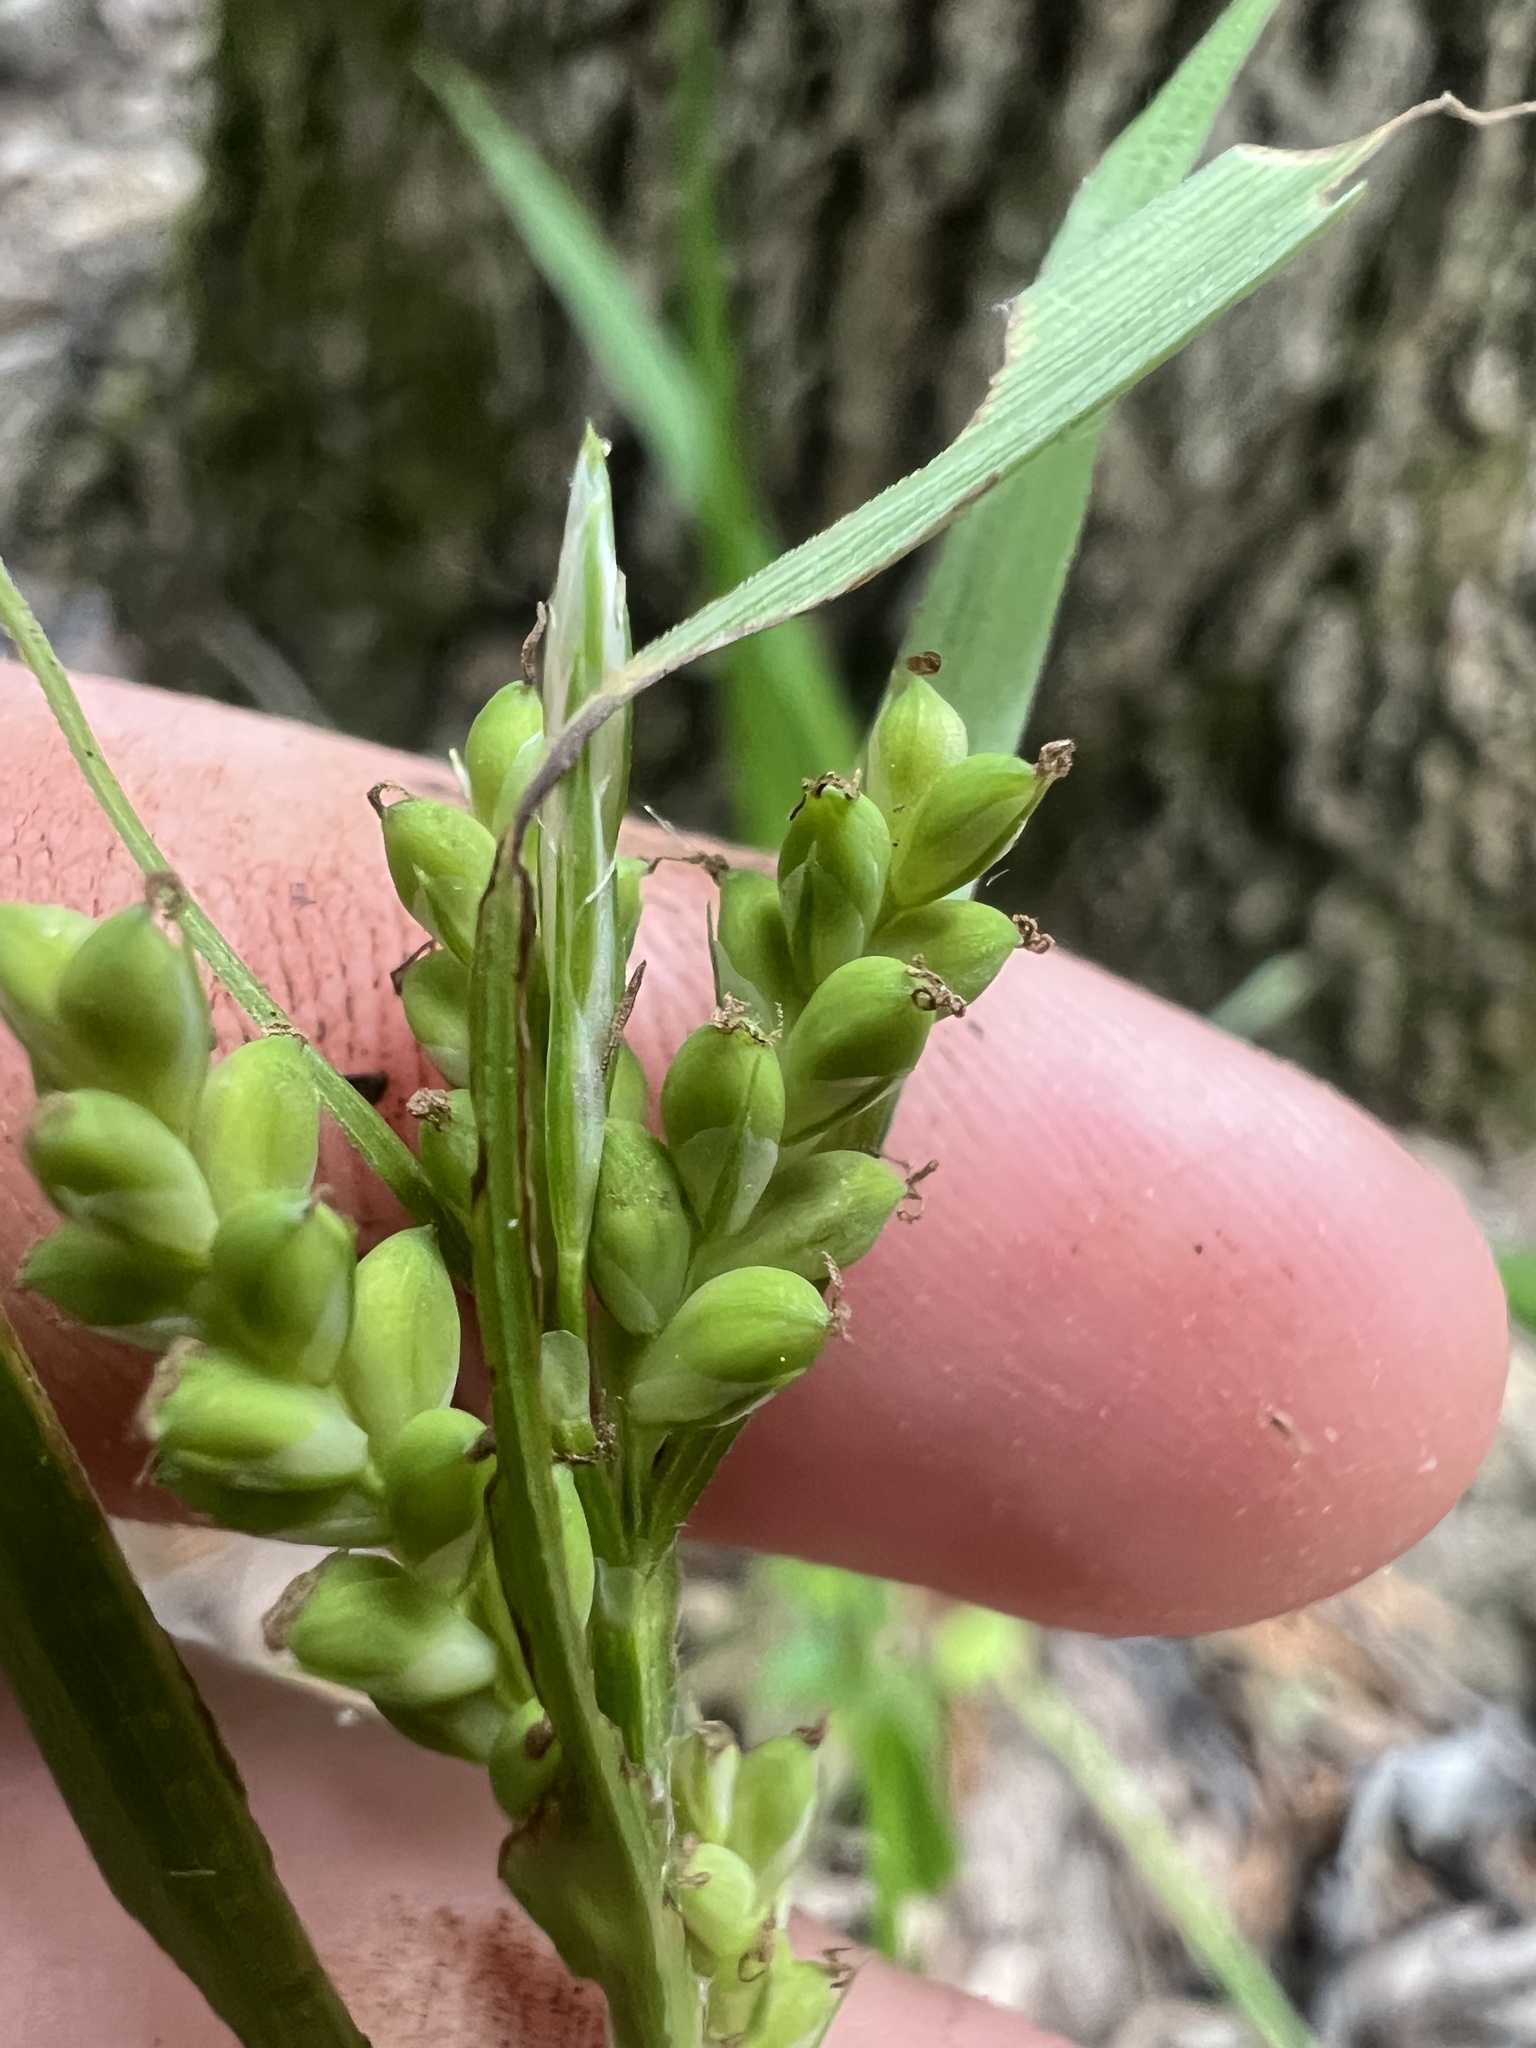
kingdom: Plantae
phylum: Tracheophyta
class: Liliopsida
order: Poales
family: Cyperaceae
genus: Carex
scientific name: Carex blanda
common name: Bland sedge
